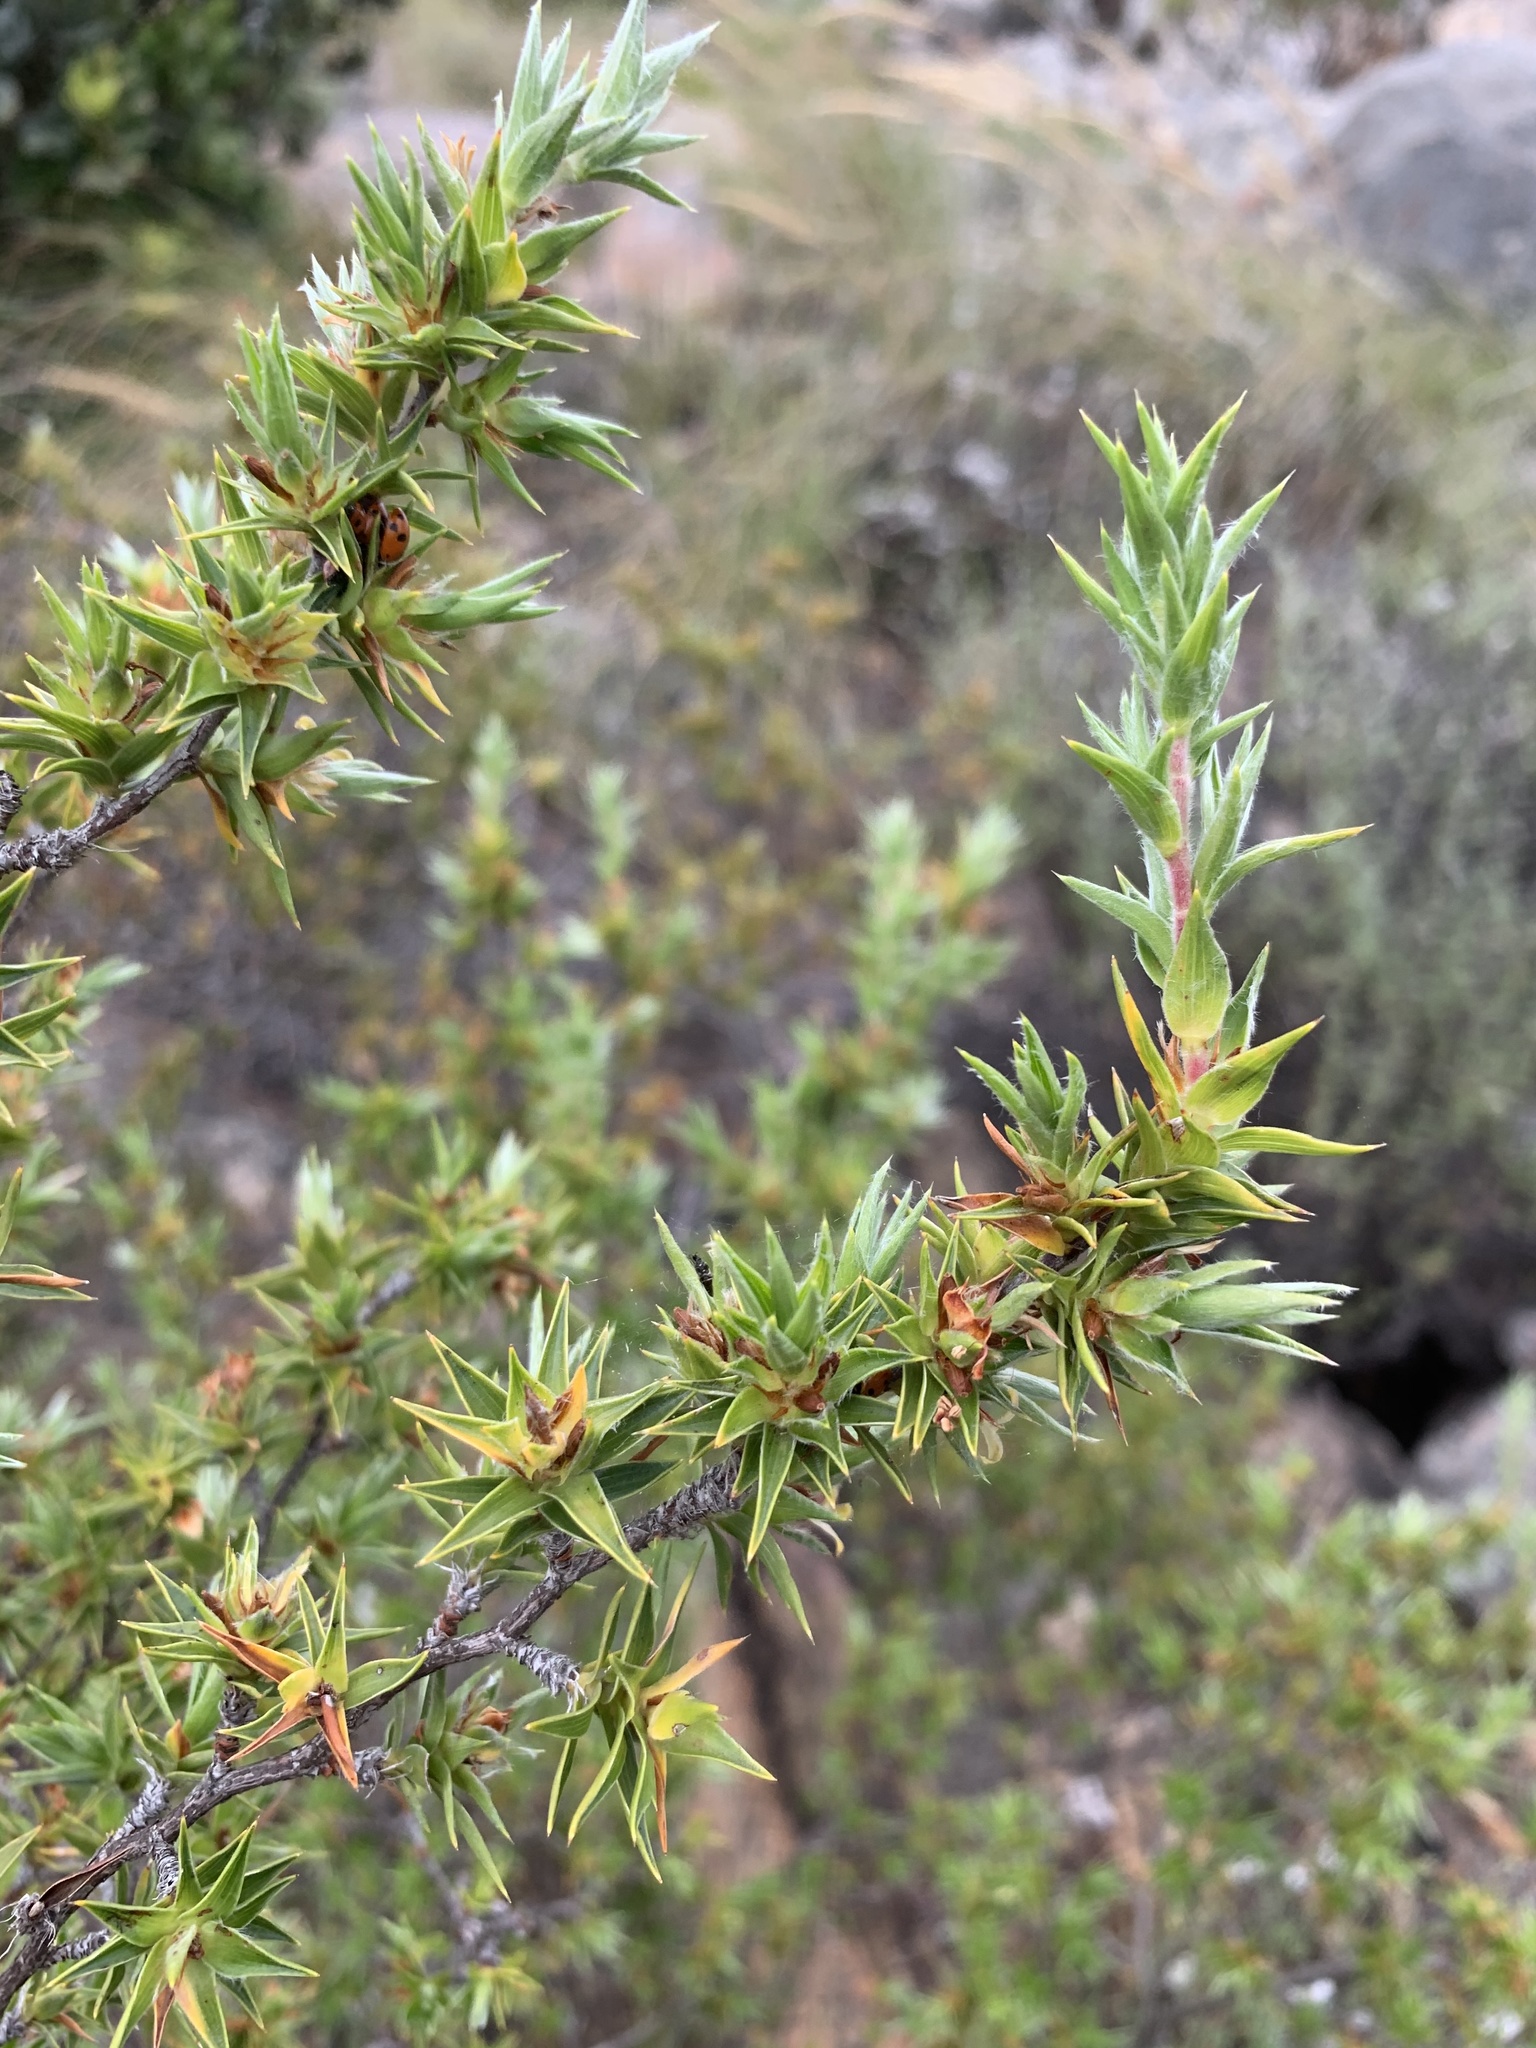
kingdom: Plantae
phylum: Tracheophyta
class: Magnoliopsida
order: Rosales
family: Rosaceae
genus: Cliffortia
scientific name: Cliffortia ruscifolia
